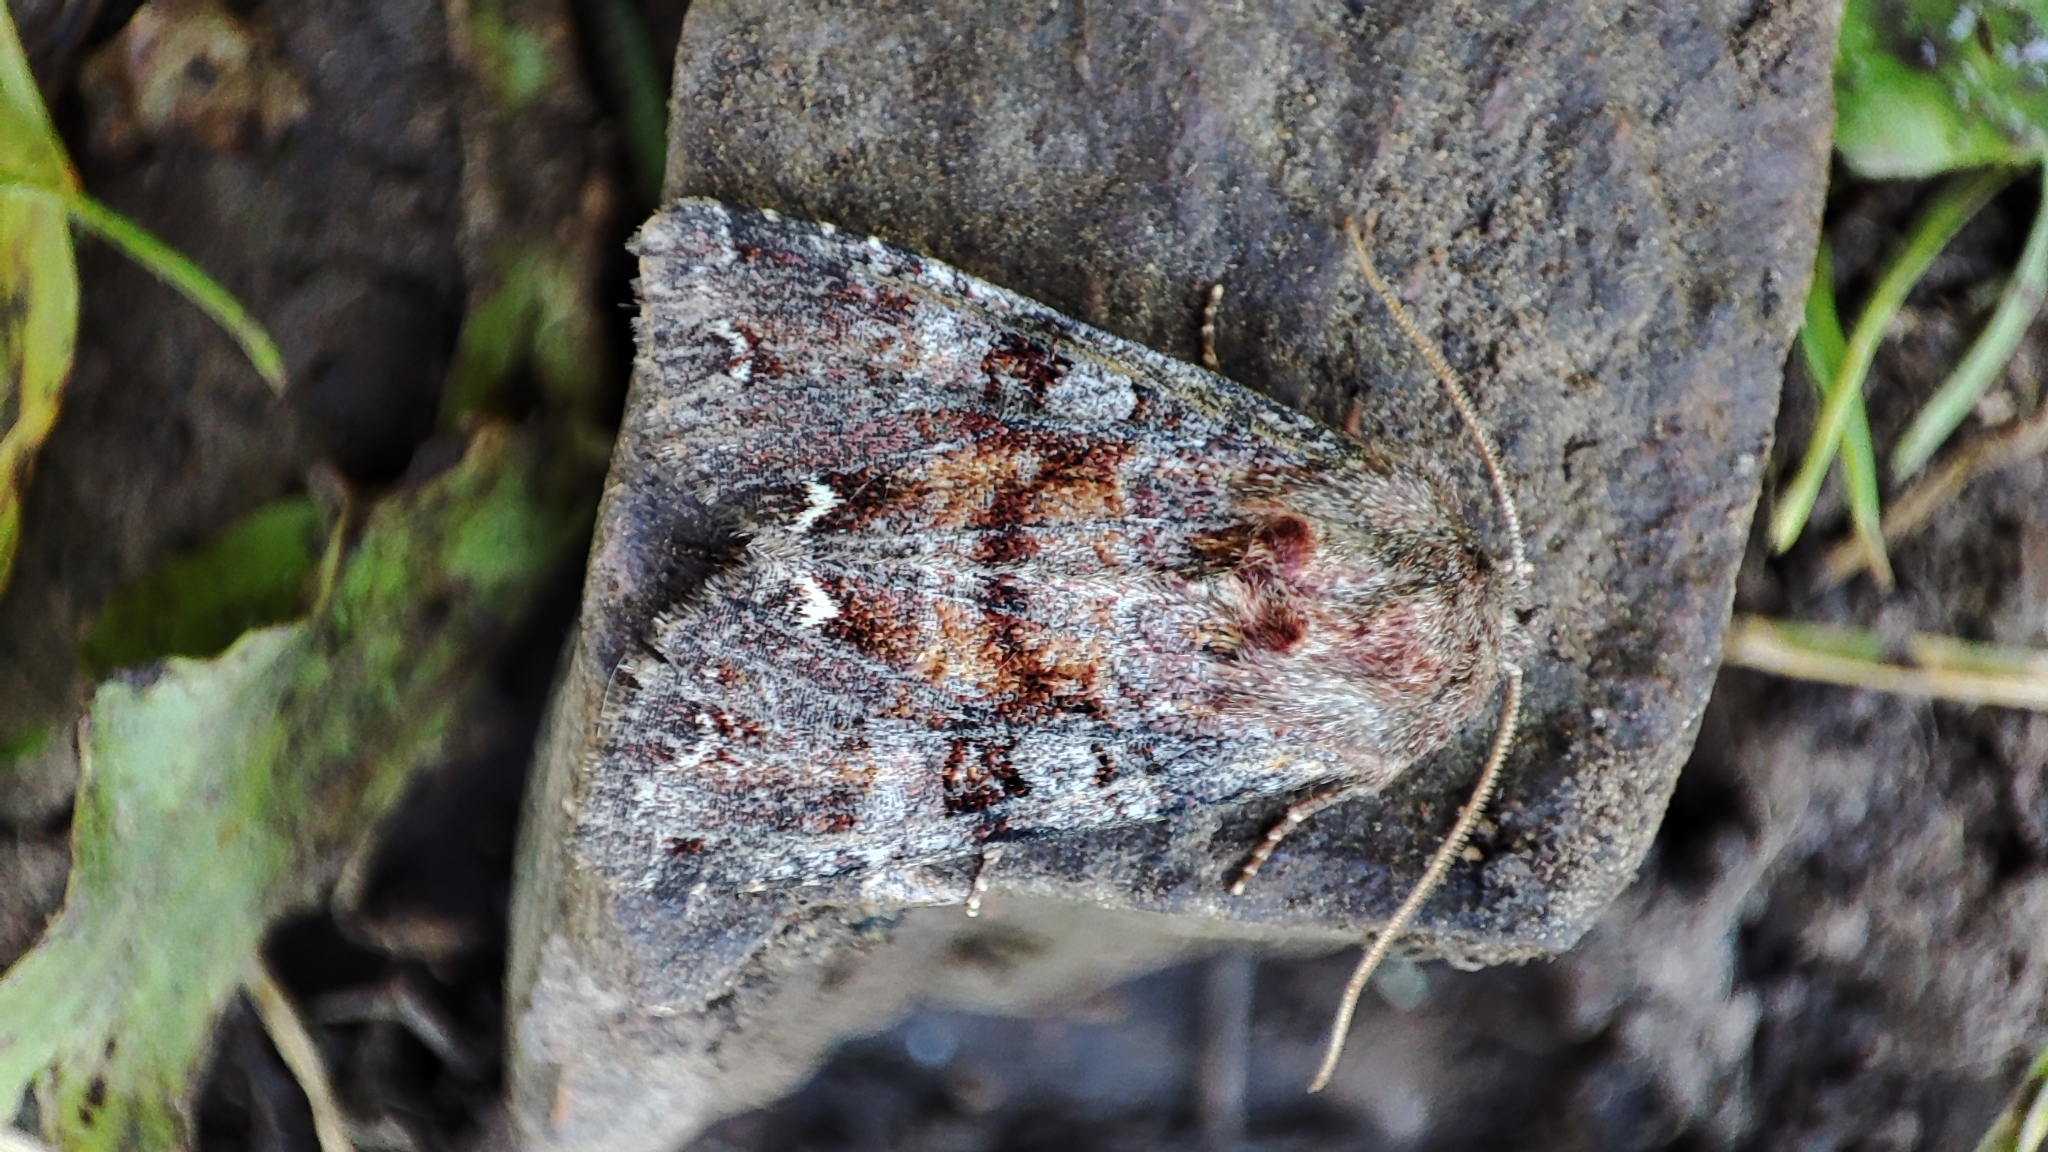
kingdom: Animalia
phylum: Arthropoda
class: Insecta
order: Lepidoptera
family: Noctuidae
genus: Ceramica
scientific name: Ceramica pisi
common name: Broom moth
